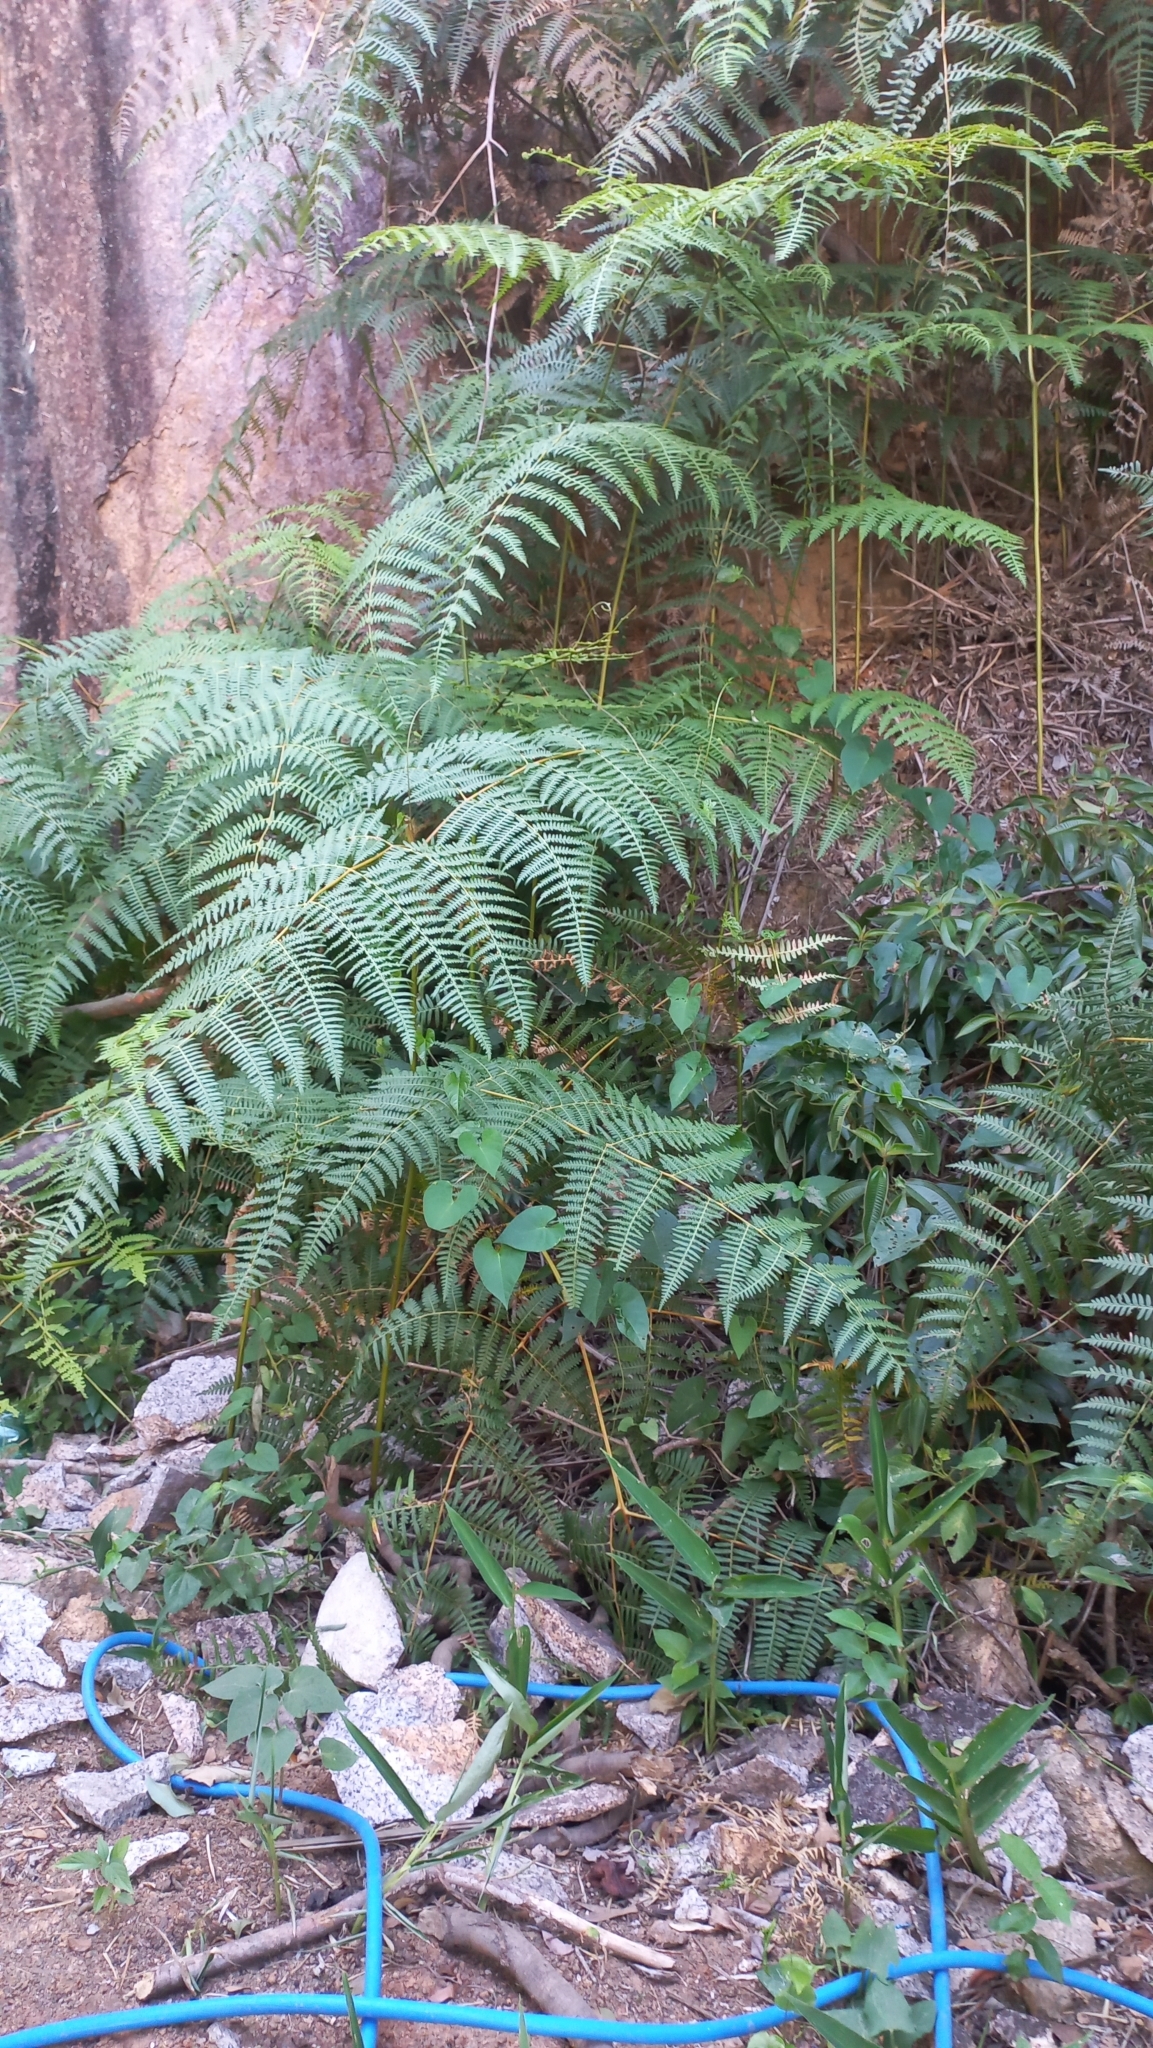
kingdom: Plantae
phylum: Tracheophyta
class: Polypodiopsida
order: Polypodiales
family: Dennstaedtiaceae
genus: Pteridium
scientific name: Pteridium esculentum
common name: Bracken fern
